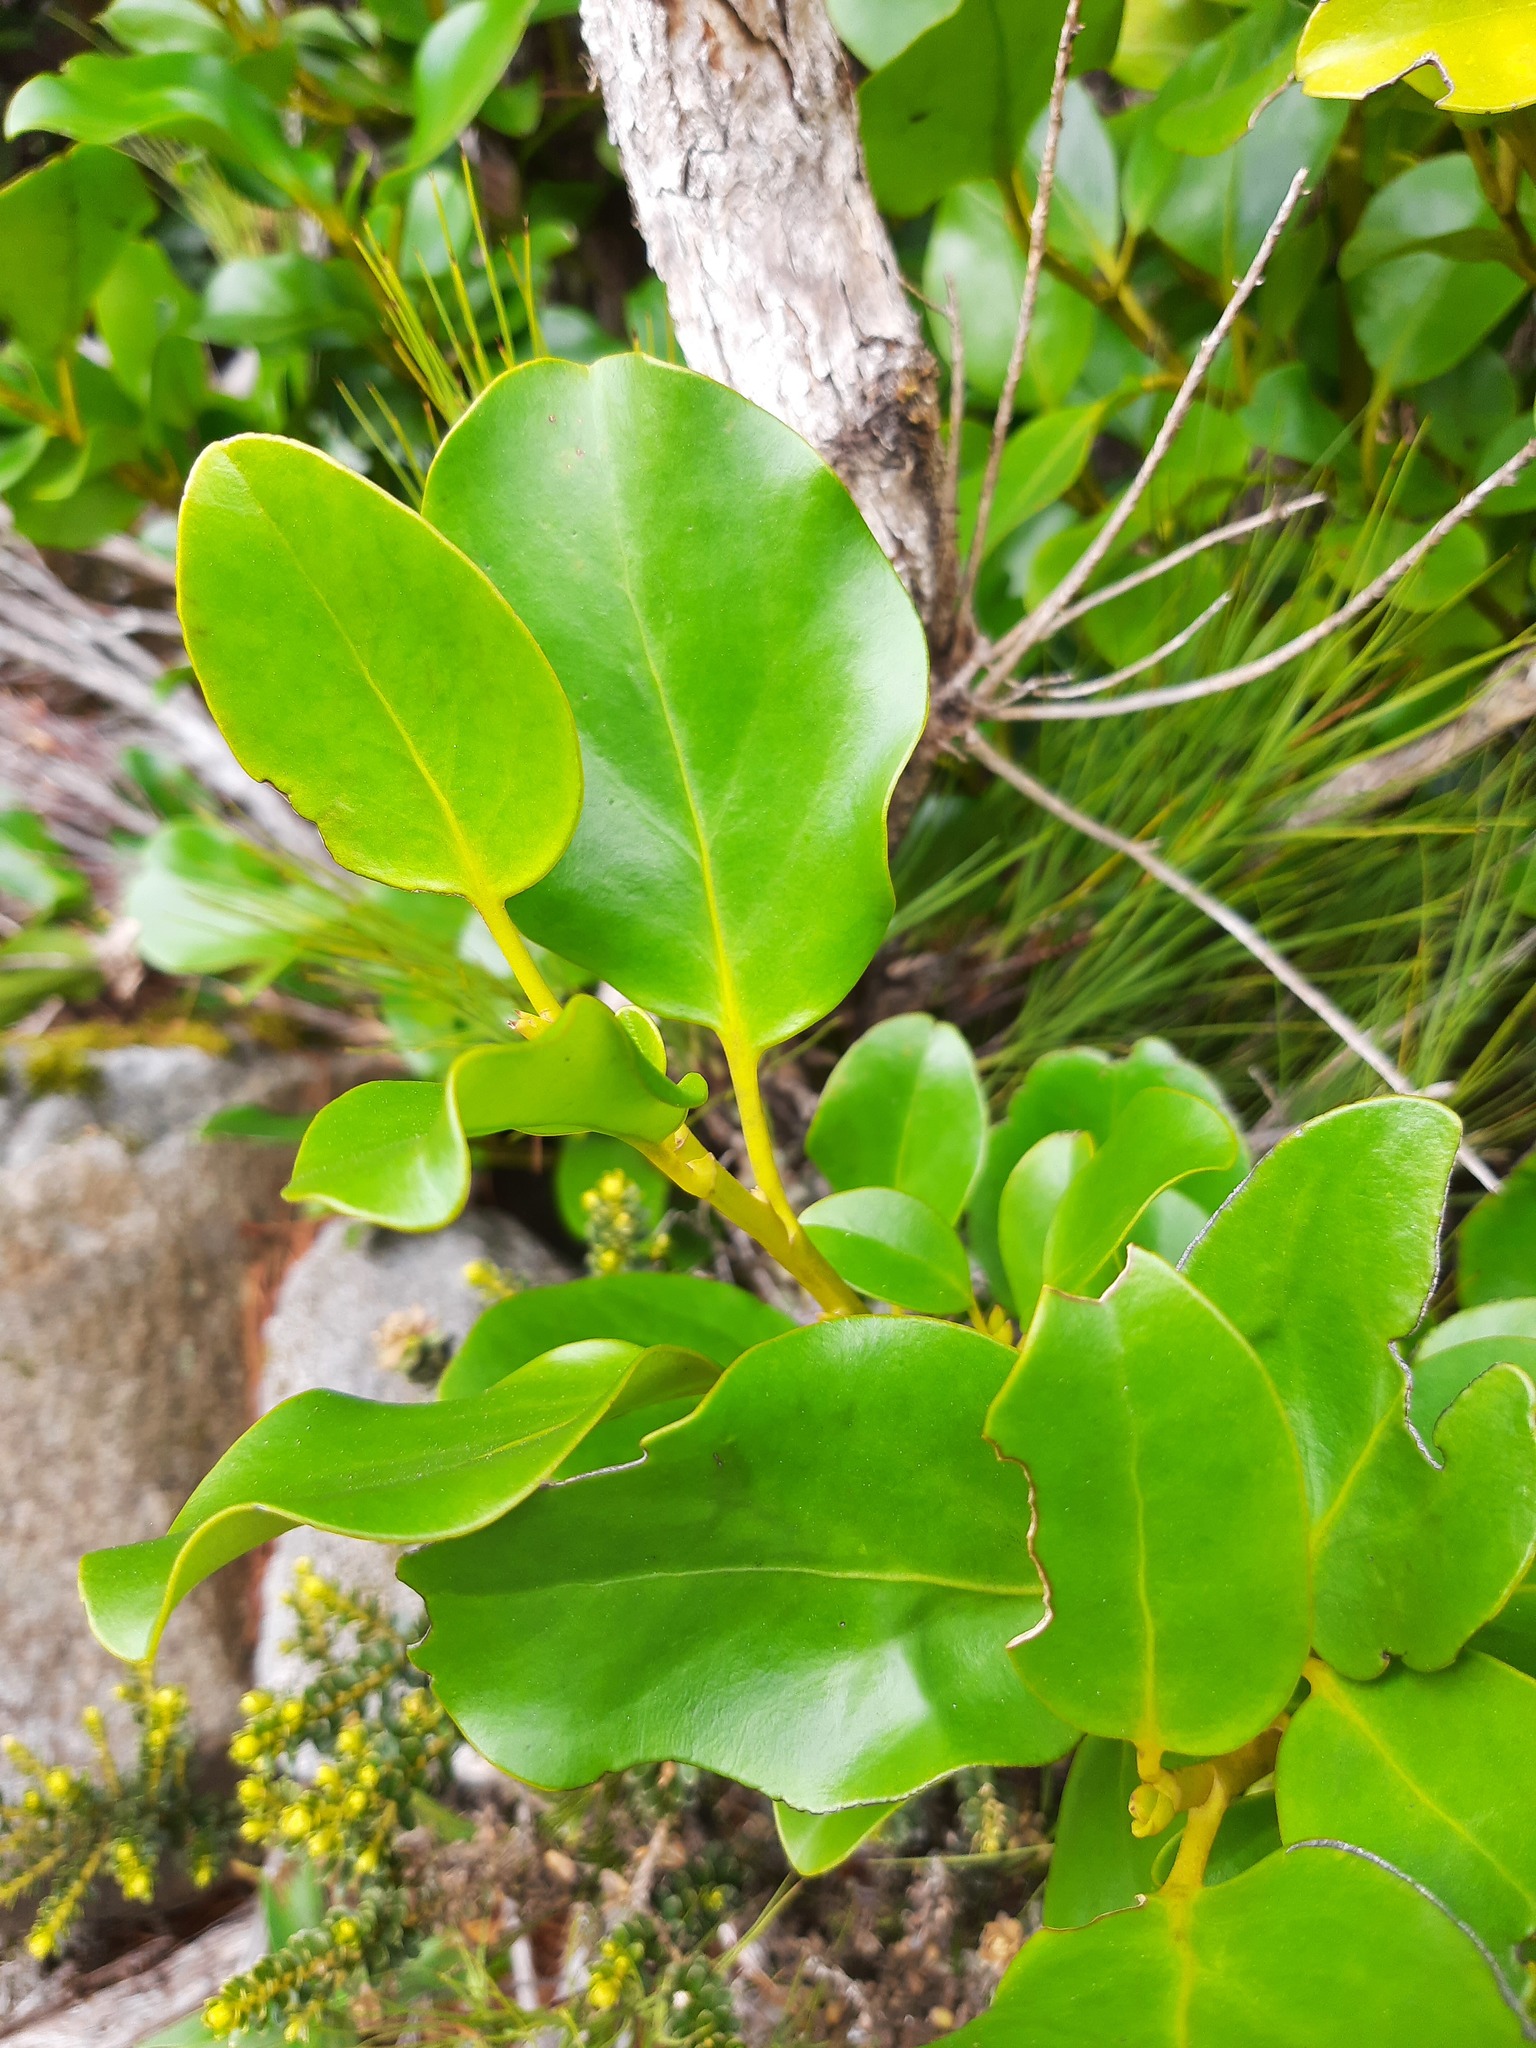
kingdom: Plantae
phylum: Tracheophyta
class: Magnoliopsida
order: Apiales
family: Griseliniaceae
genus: Griselinia
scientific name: Griselinia littoralis
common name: New zealand broadleaf
